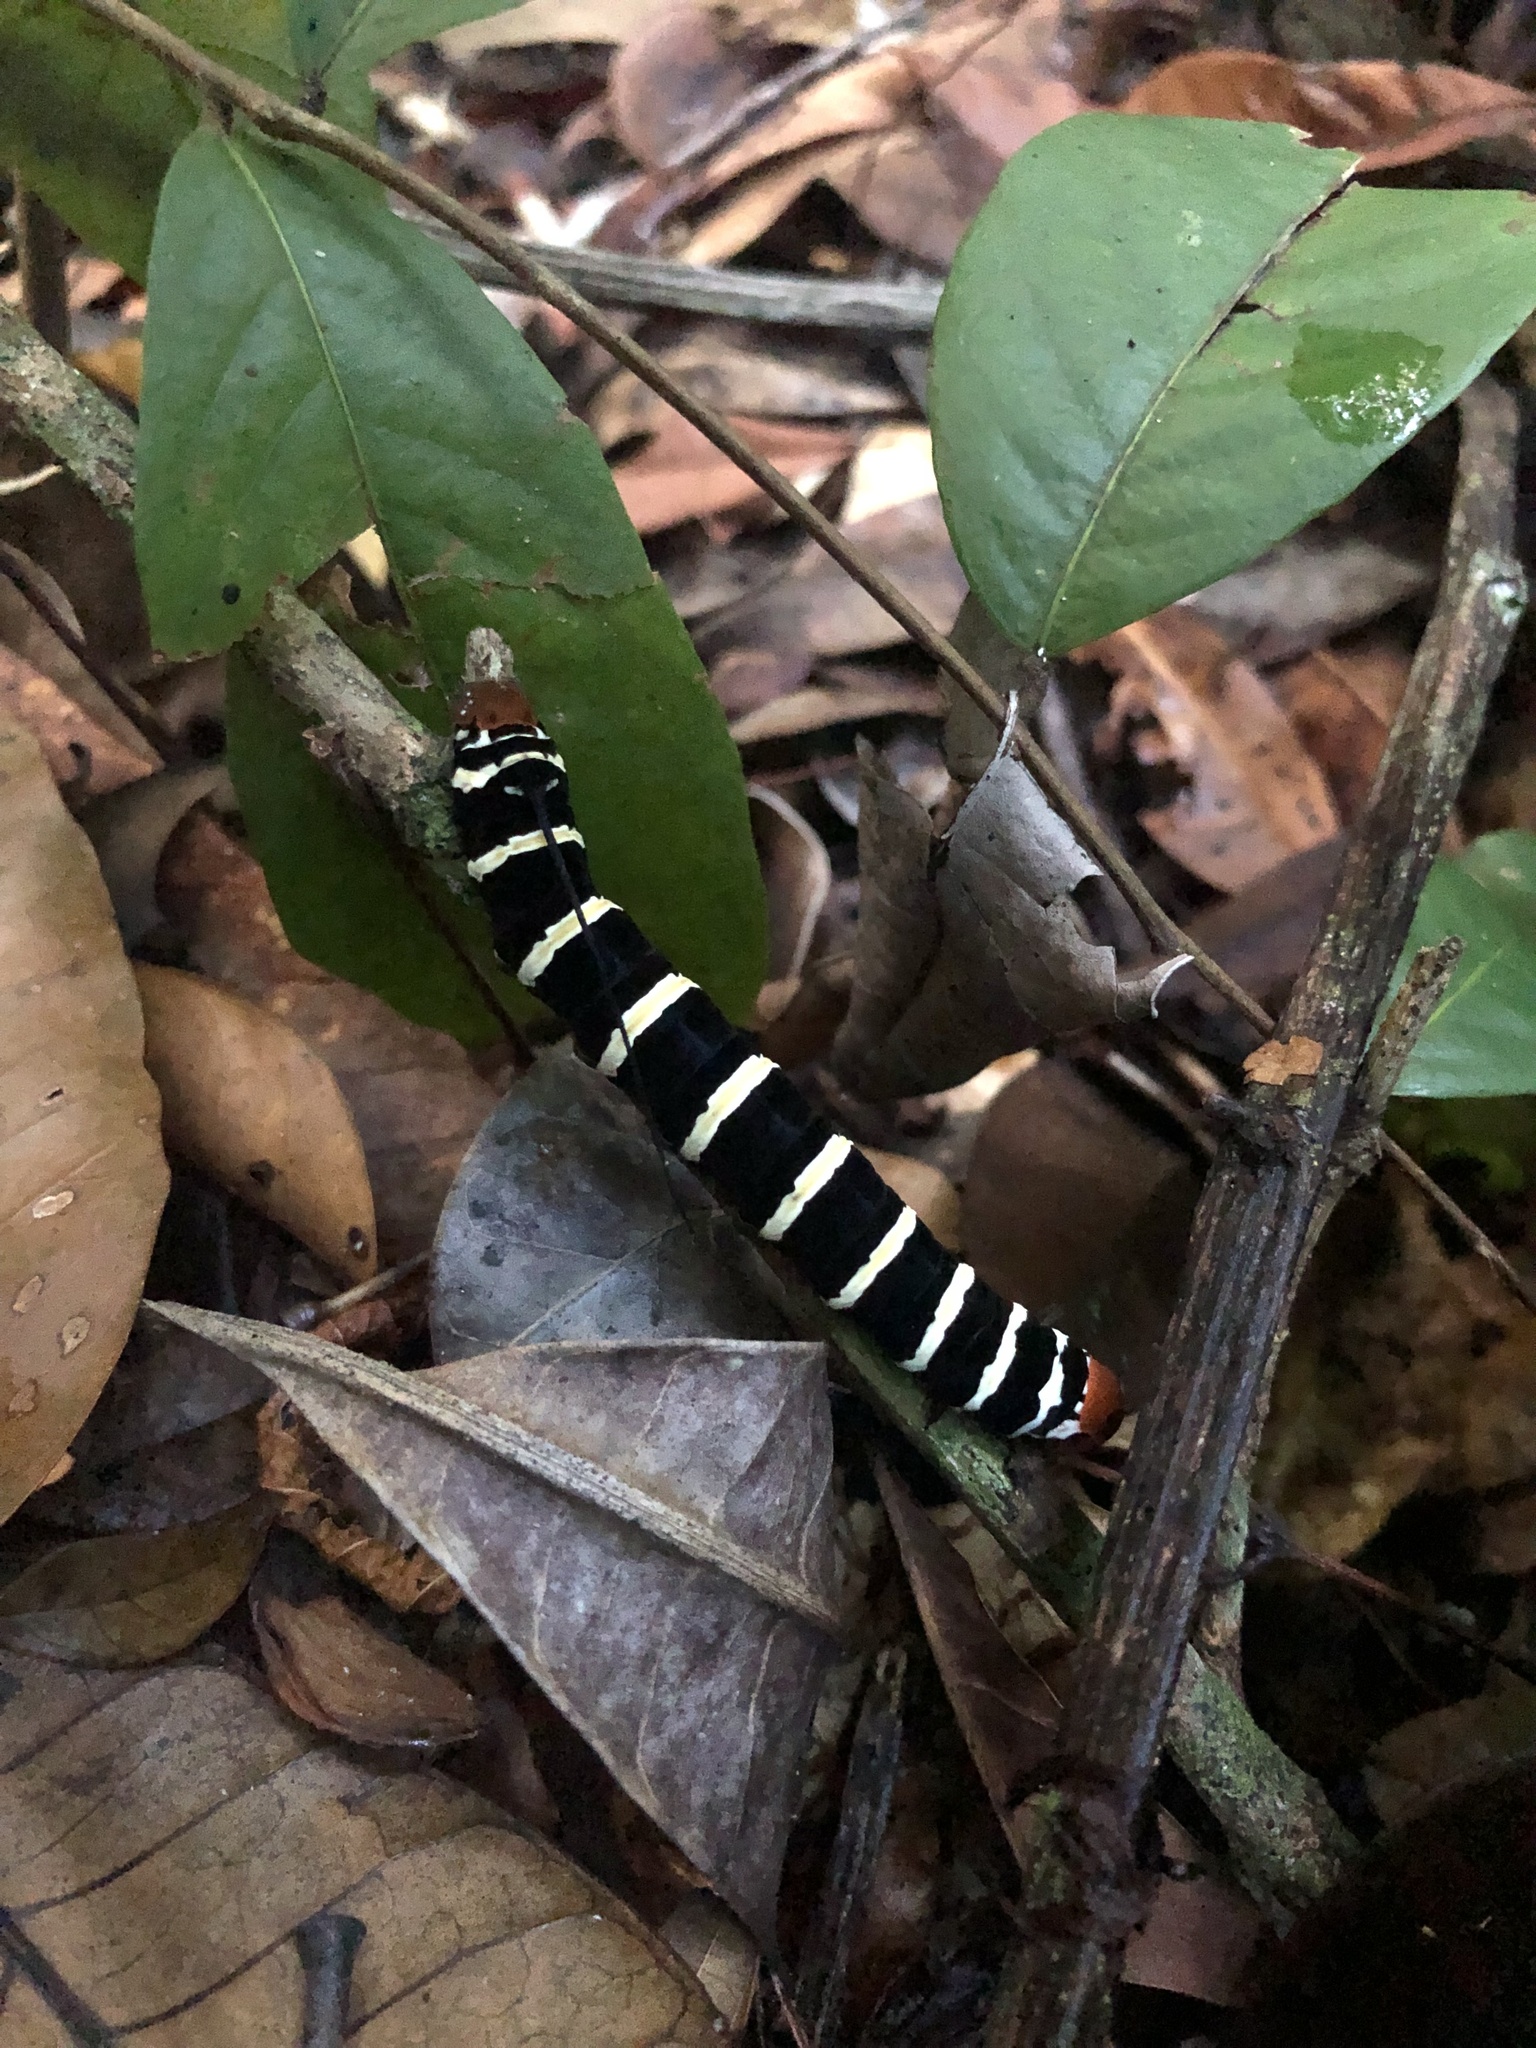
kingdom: Animalia
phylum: Arthropoda
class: Insecta
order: Lepidoptera
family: Sphingidae
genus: Isognathus
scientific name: Isognathus swainsoni
